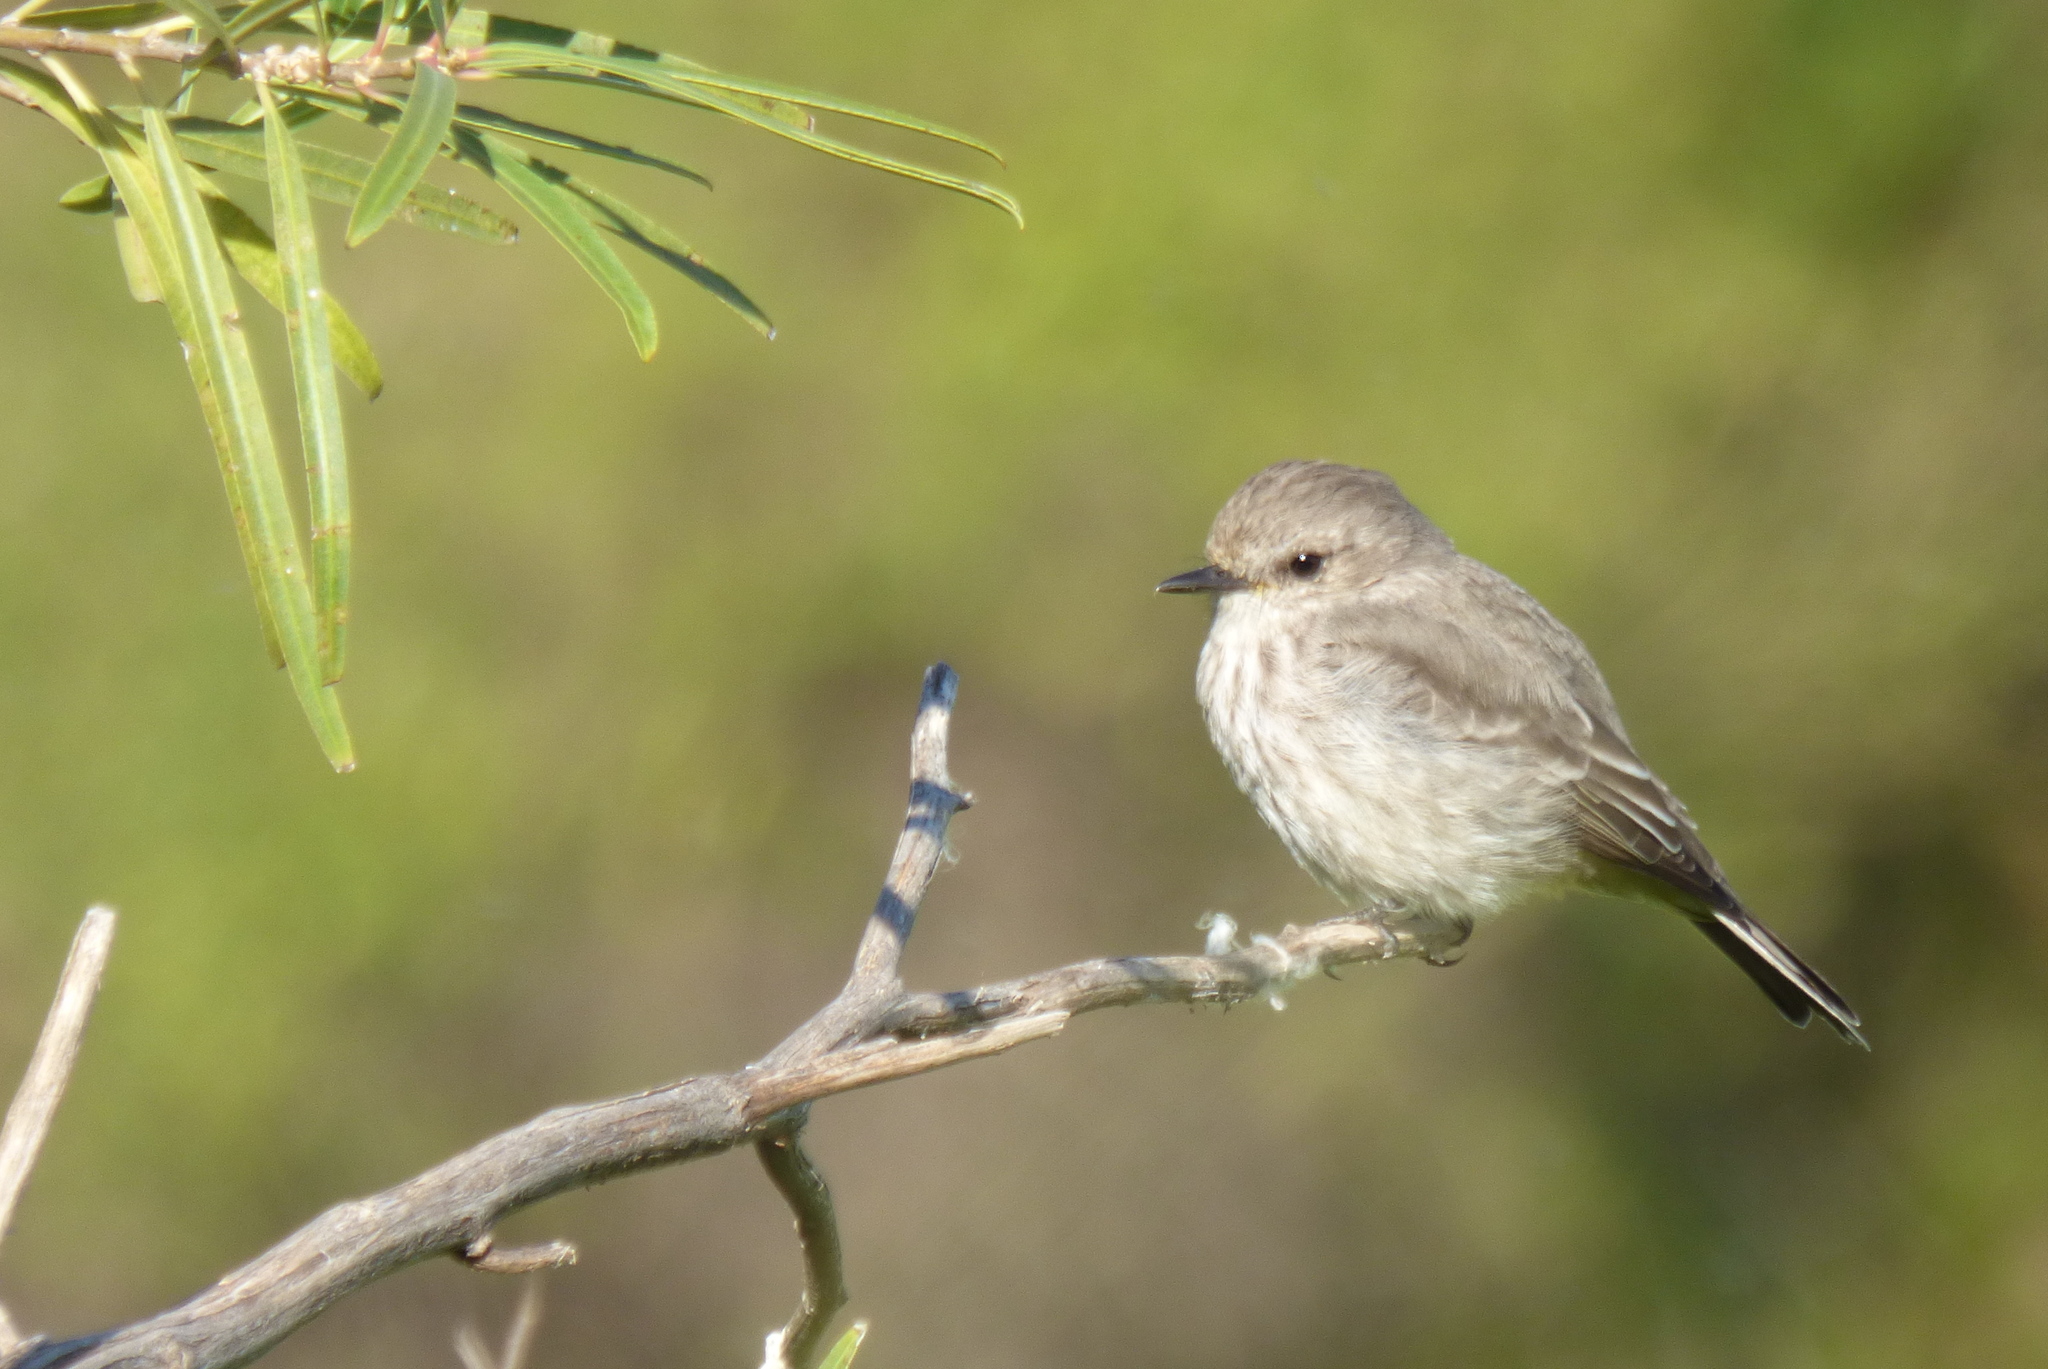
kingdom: Animalia
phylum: Chordata
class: Aves
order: Passeriformes
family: Tyrannidae
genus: Pyrocephalus
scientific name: Pyrocephalus rubinus
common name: Vermilion flycatcher
